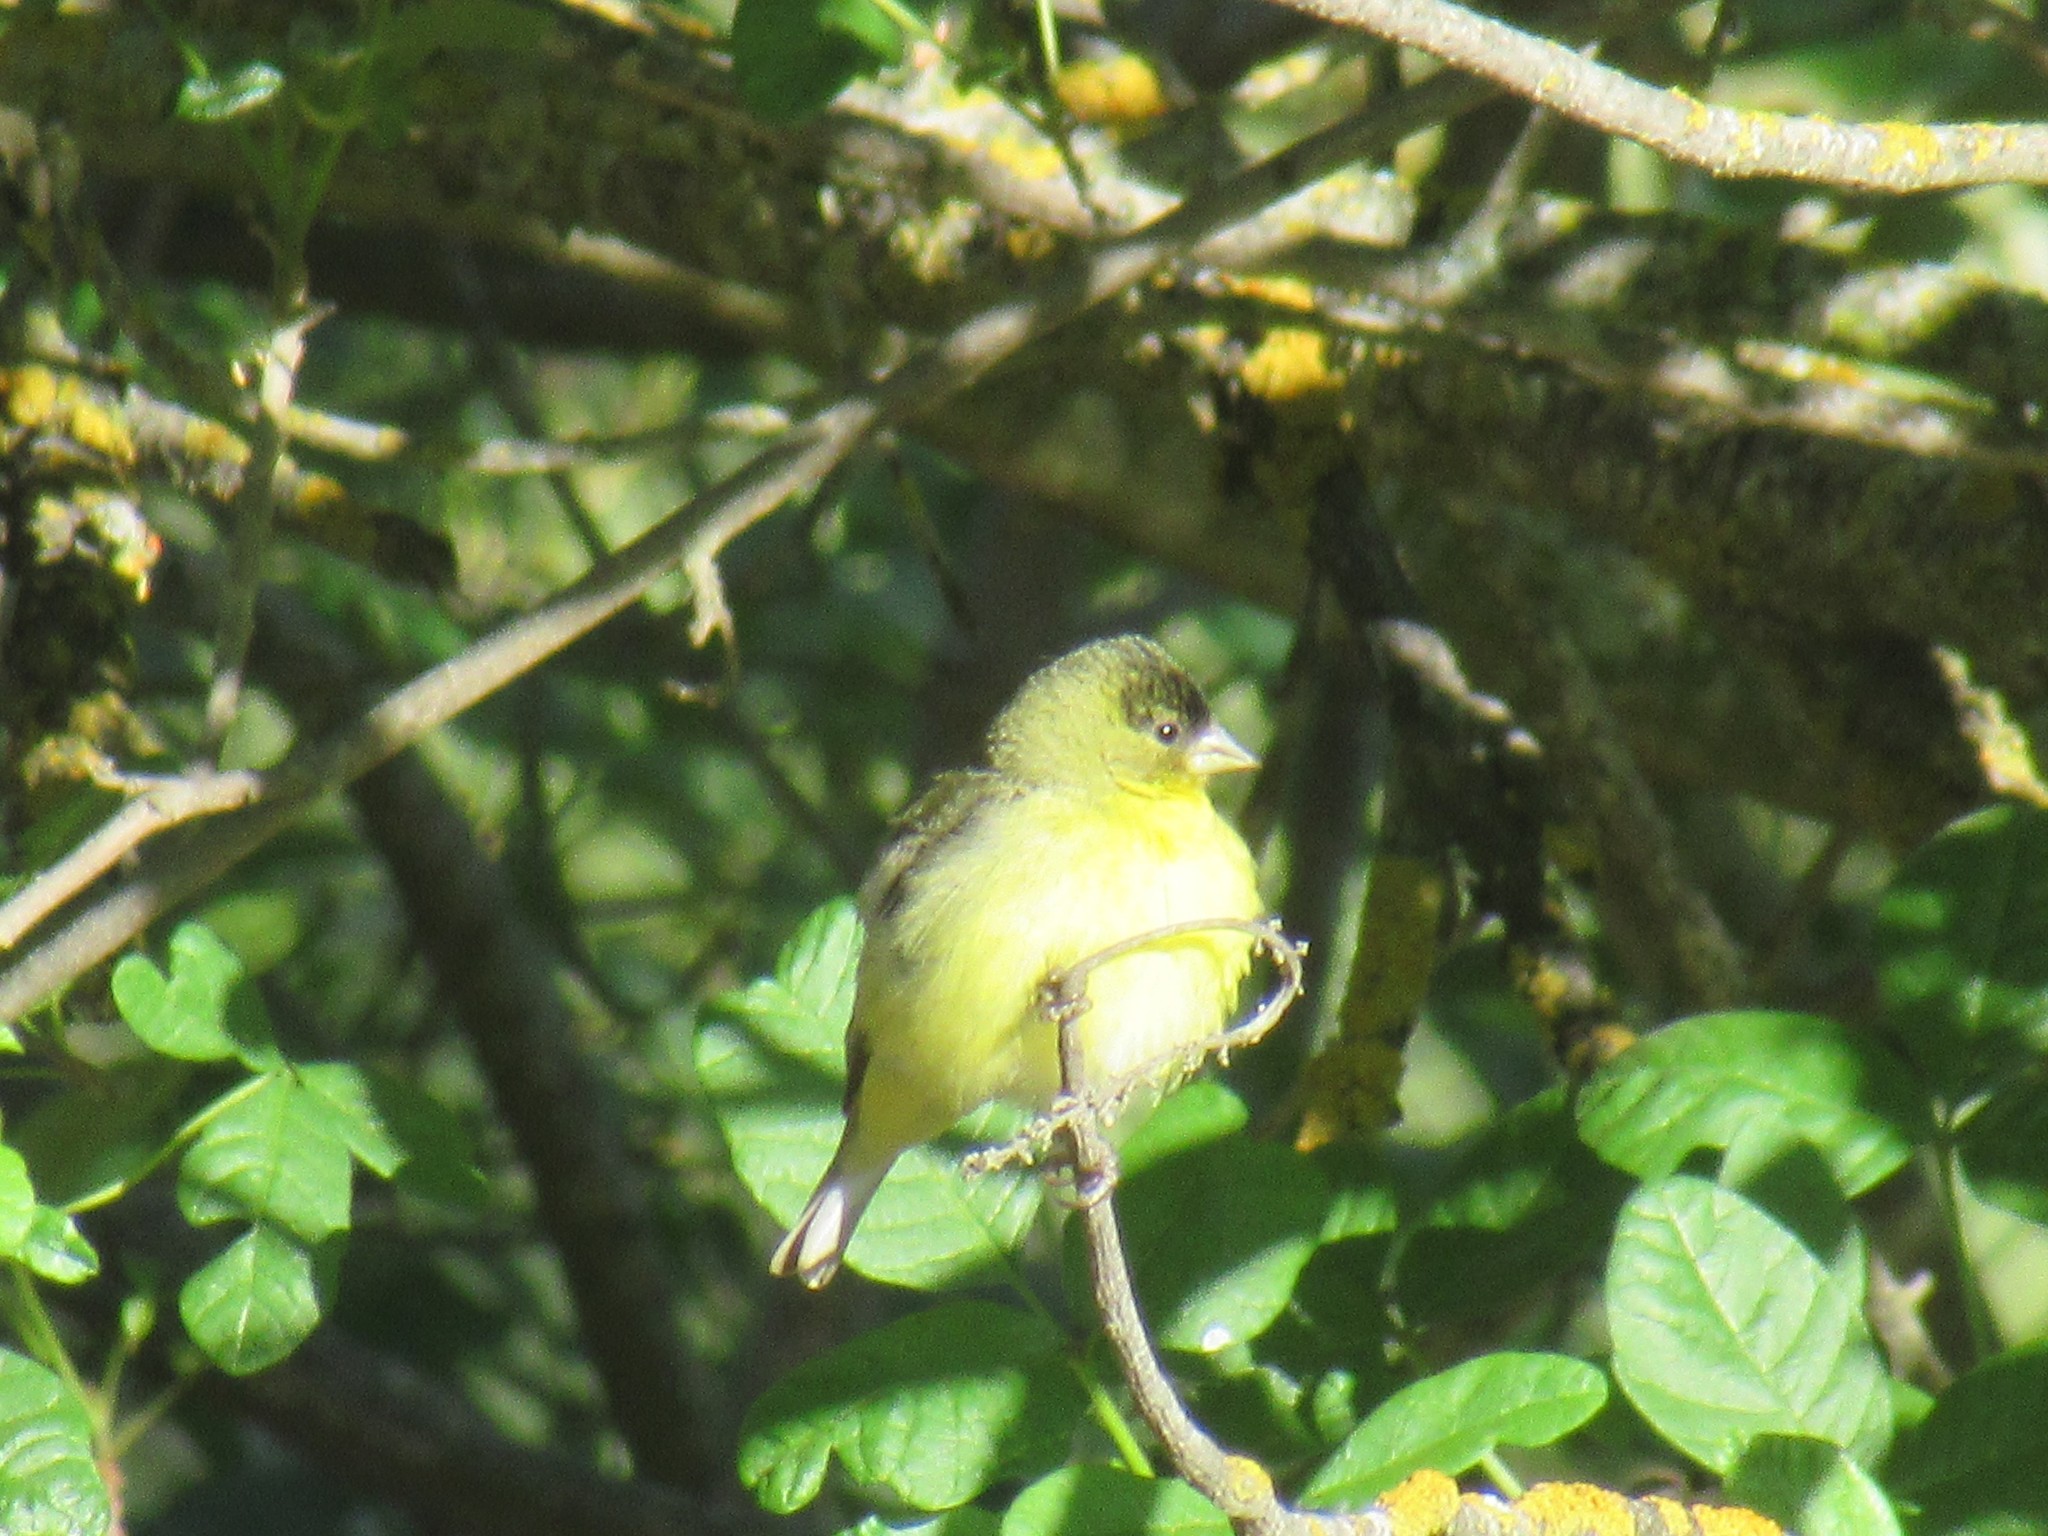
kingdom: Animalia
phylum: Chordata
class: Aves
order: Passeriformes
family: Fringillidae
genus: Spinus
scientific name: Spinus psaltria
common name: Lesser goldfinch
